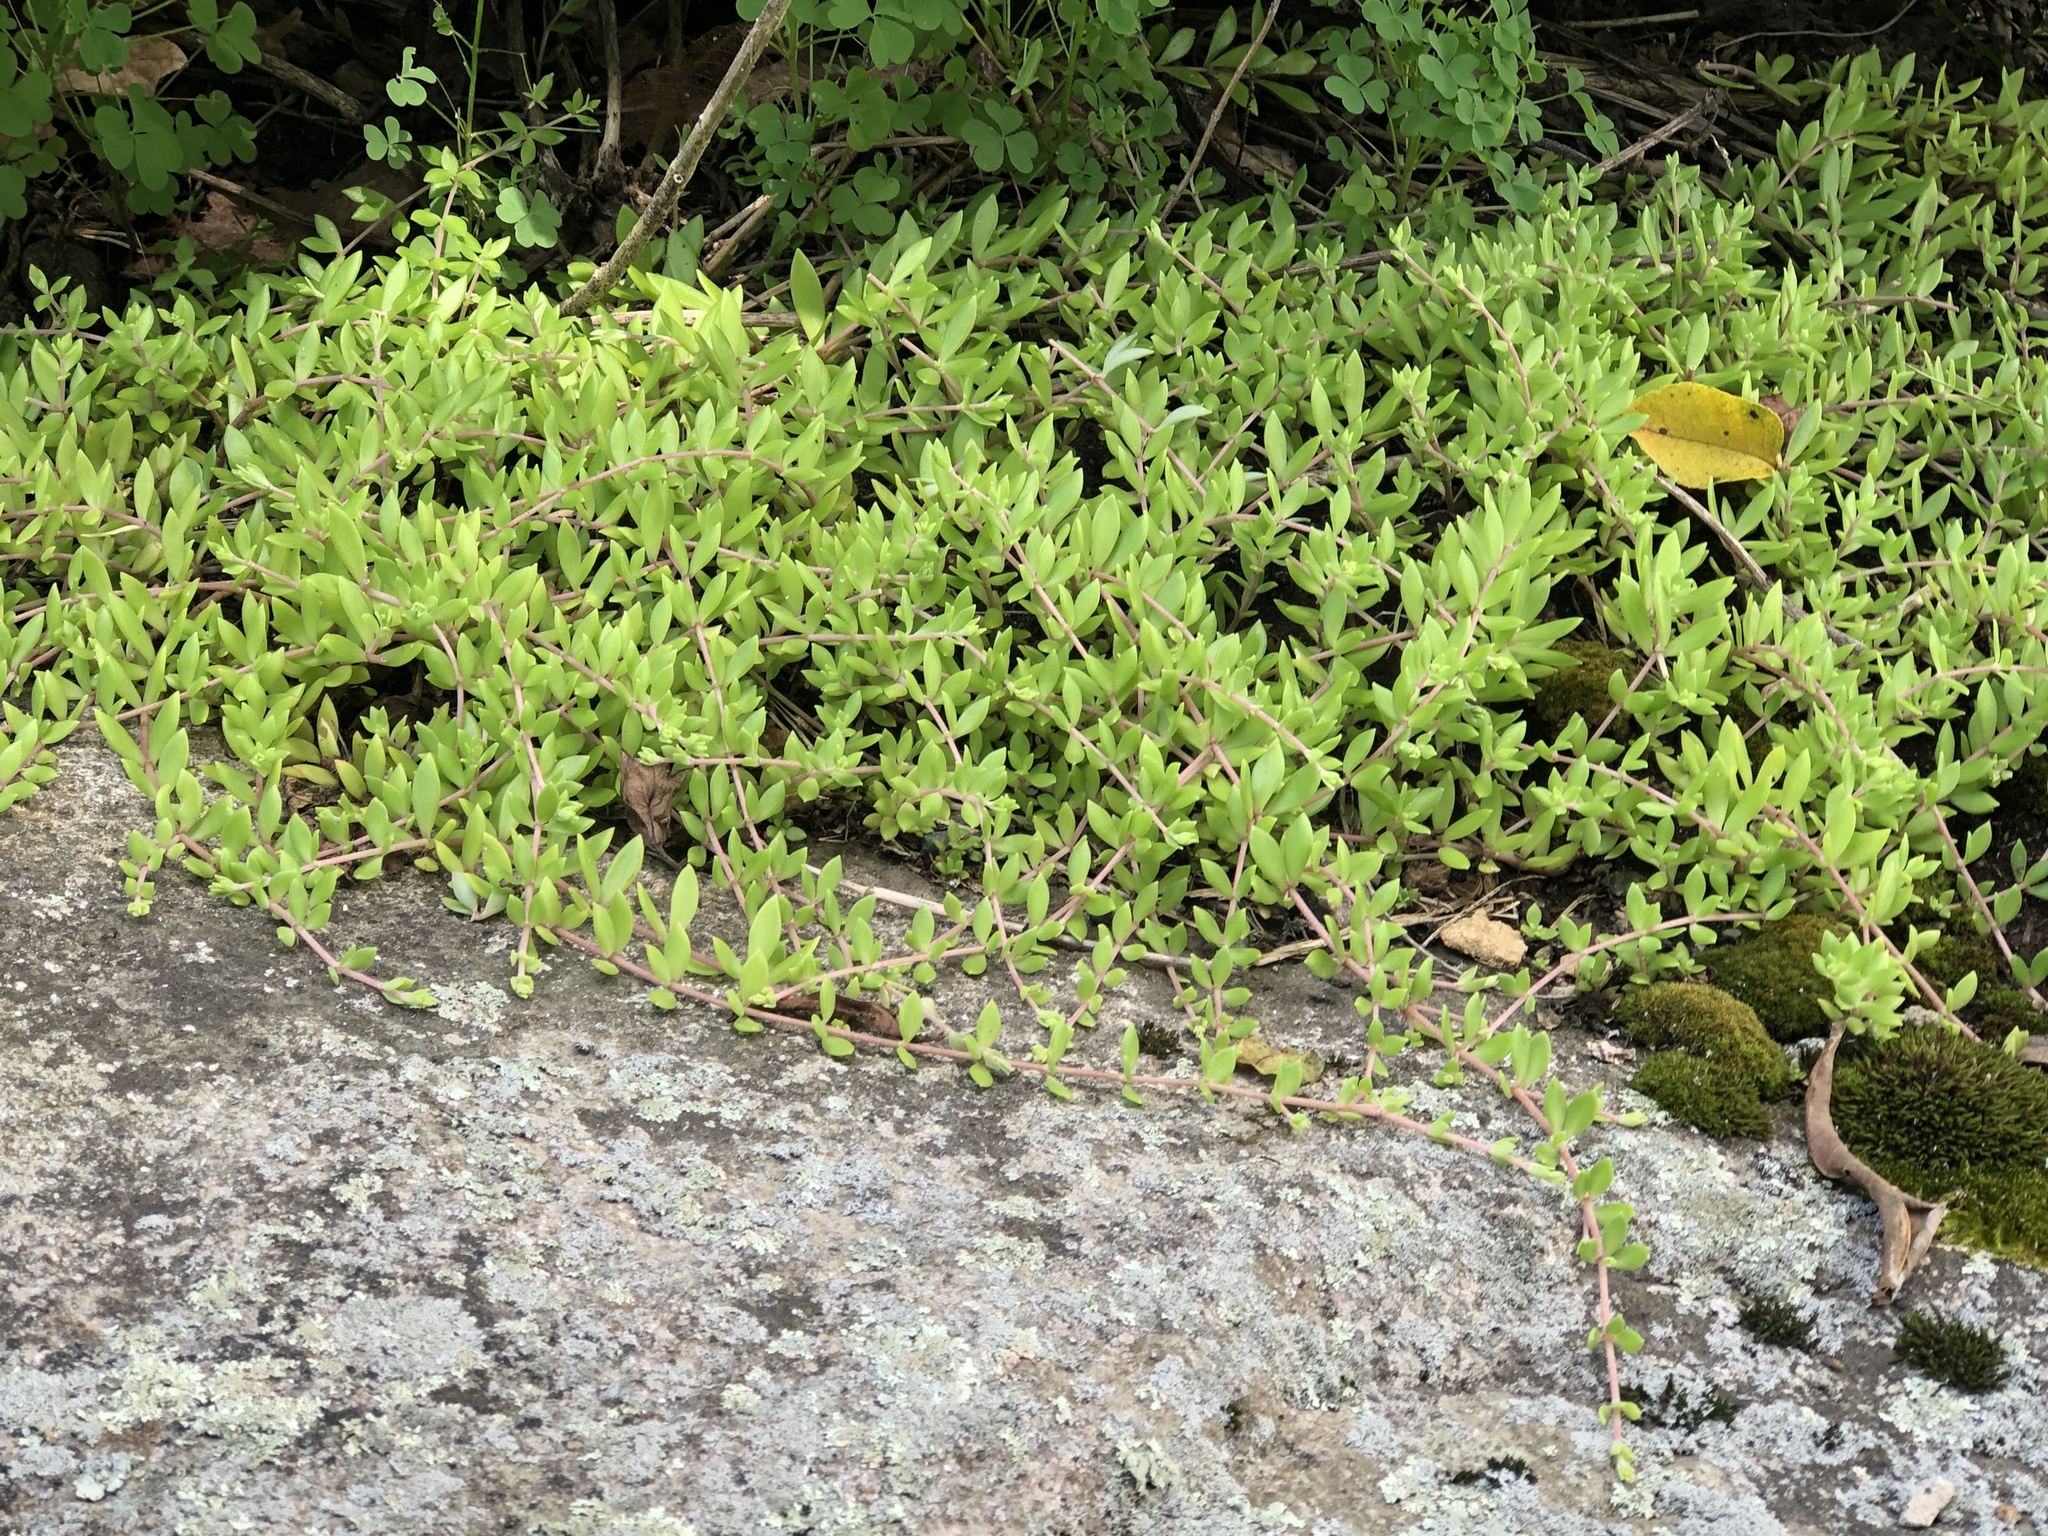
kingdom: Plantae
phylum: Tracheophyta
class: Magnoliopsida
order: Saxifragales
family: Crassulaceae
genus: Sedum
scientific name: Sedum sarmentosum
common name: Stringy stonecrop
